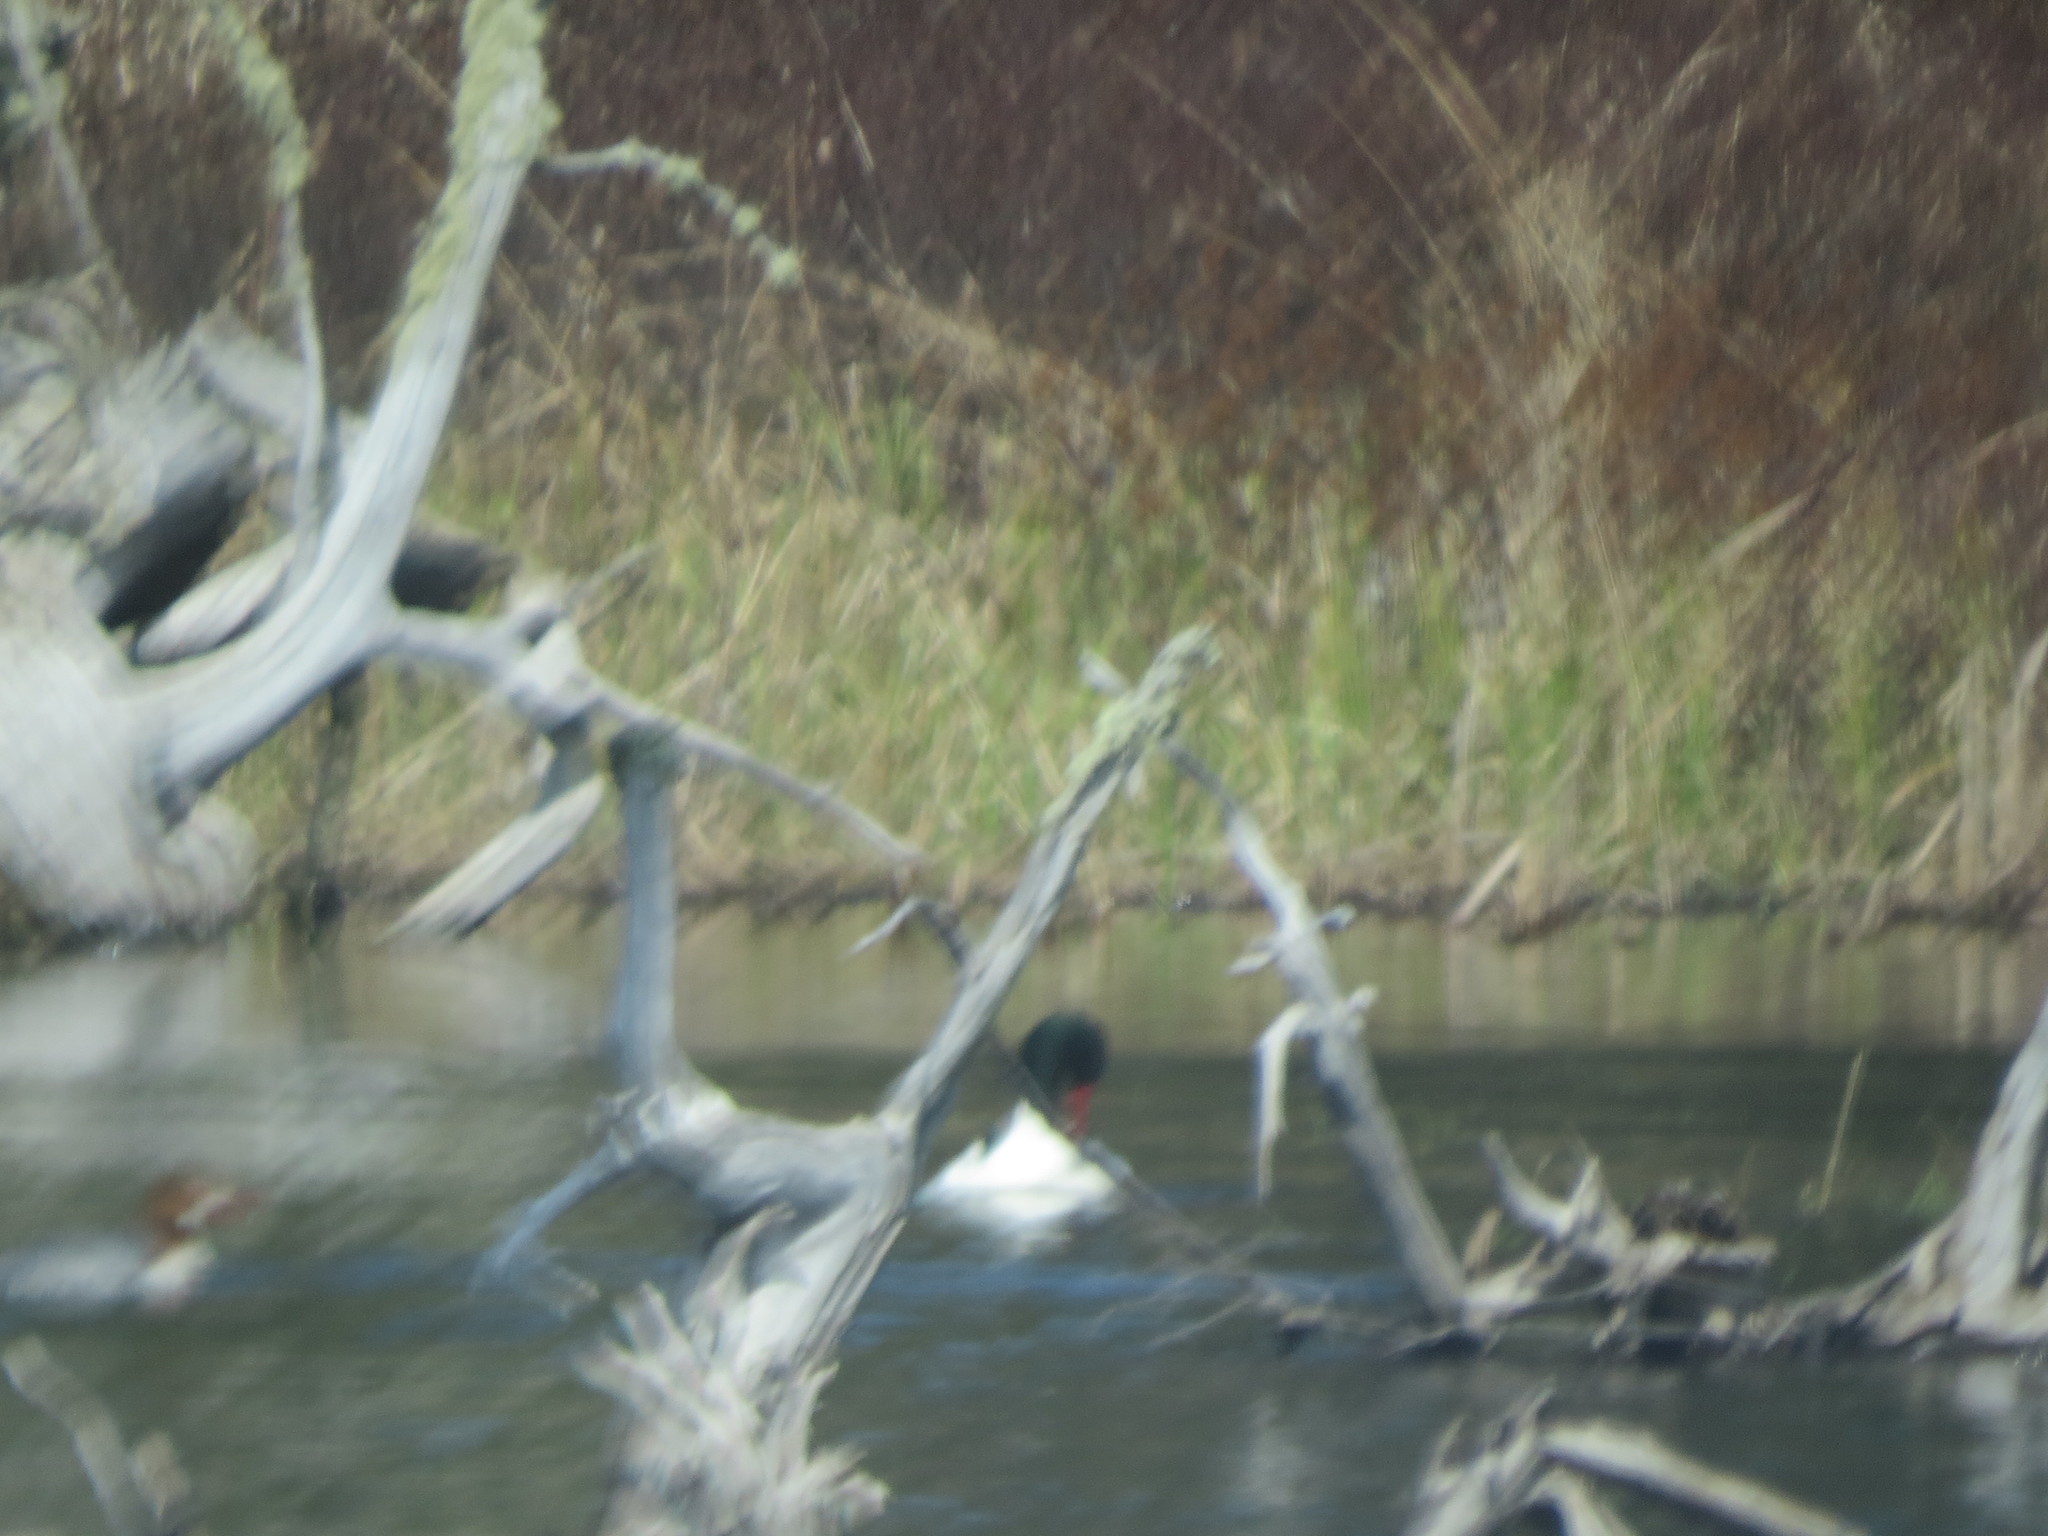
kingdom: Animalia
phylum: Chordata
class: Aves
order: Anseriformes
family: Anatidae
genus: Mergus
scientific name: Mergus merganser
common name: Common merganser
